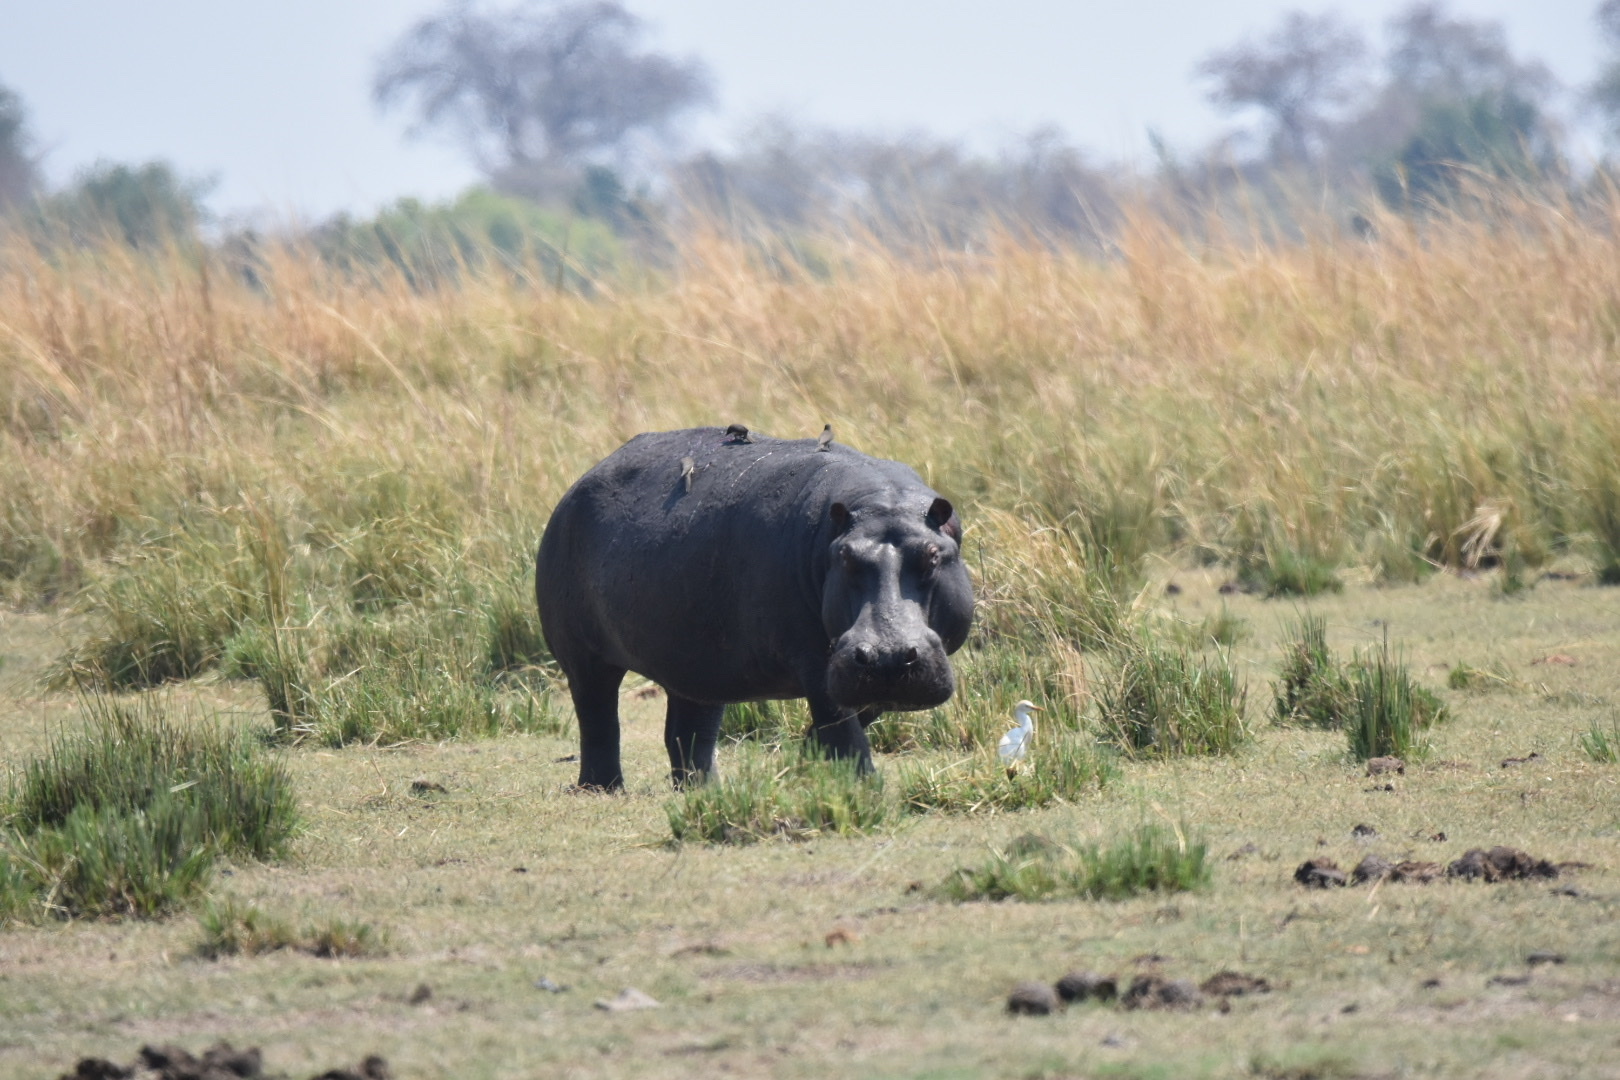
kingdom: Animalia
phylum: Chordata
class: Mammalia
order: Artiodactyla
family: Hippopotamidae
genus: Hippopotamus
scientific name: Hippopotamus amphibius
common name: Common hippopotamus
